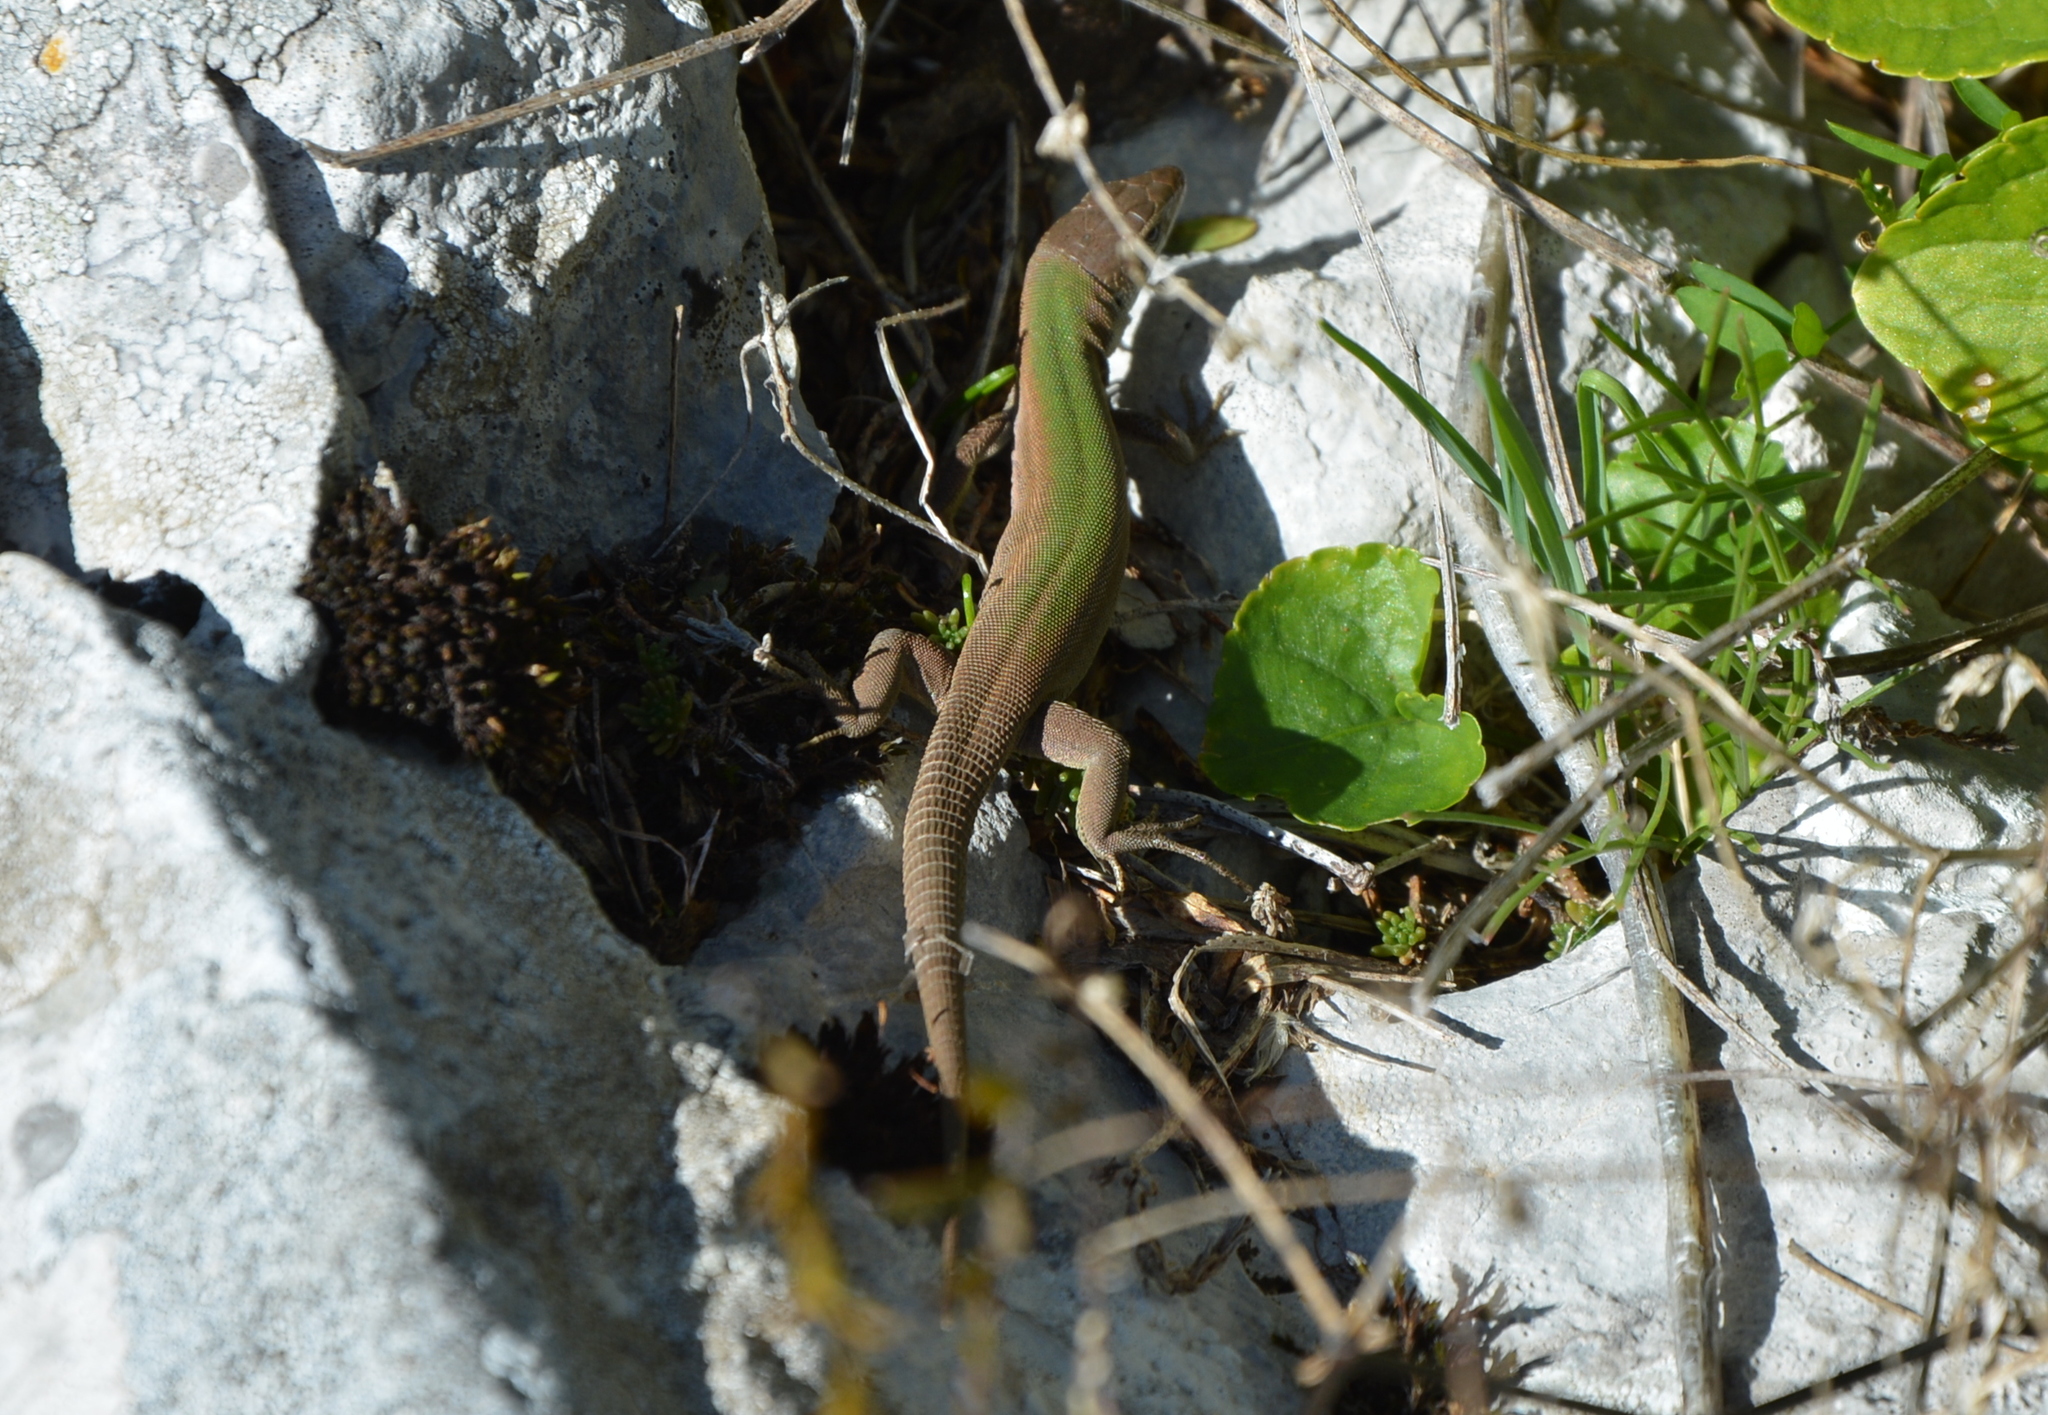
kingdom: Animalia
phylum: Chordata
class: Squamata
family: Lacertidae
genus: Podarcis
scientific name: Podarcis melisellensis
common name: Dalmatian wall lizard
